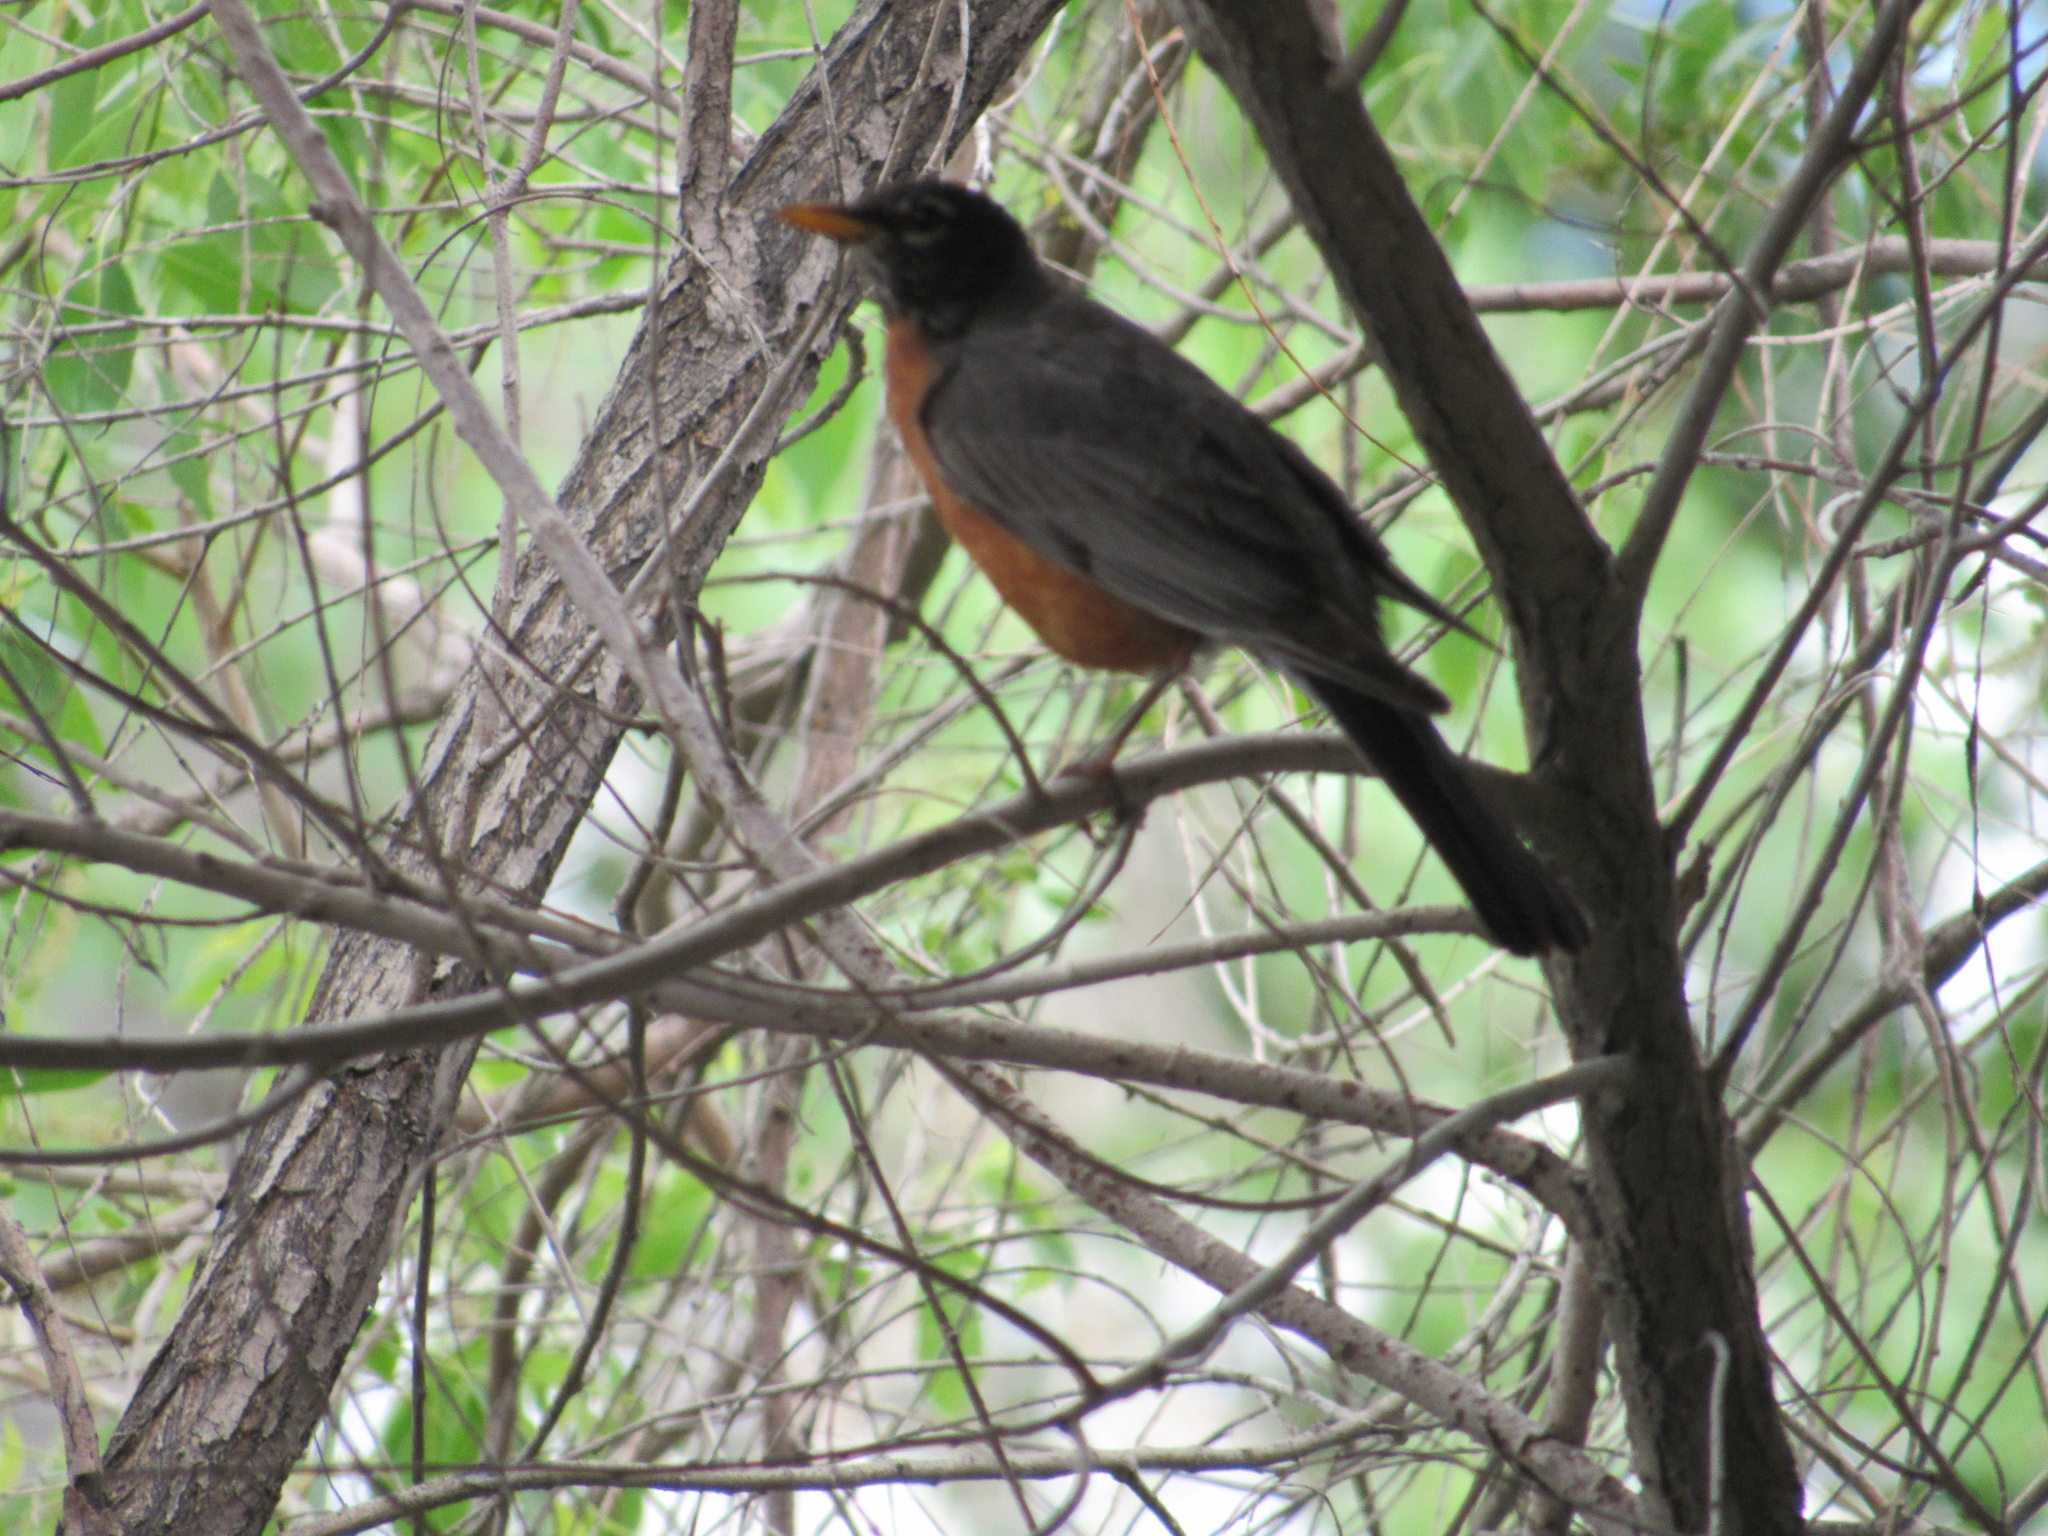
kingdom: Animalia
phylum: Chordata
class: Aves
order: Passeriformes
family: Turdidae
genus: Turdus
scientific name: Turdus migratorius
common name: American robin
